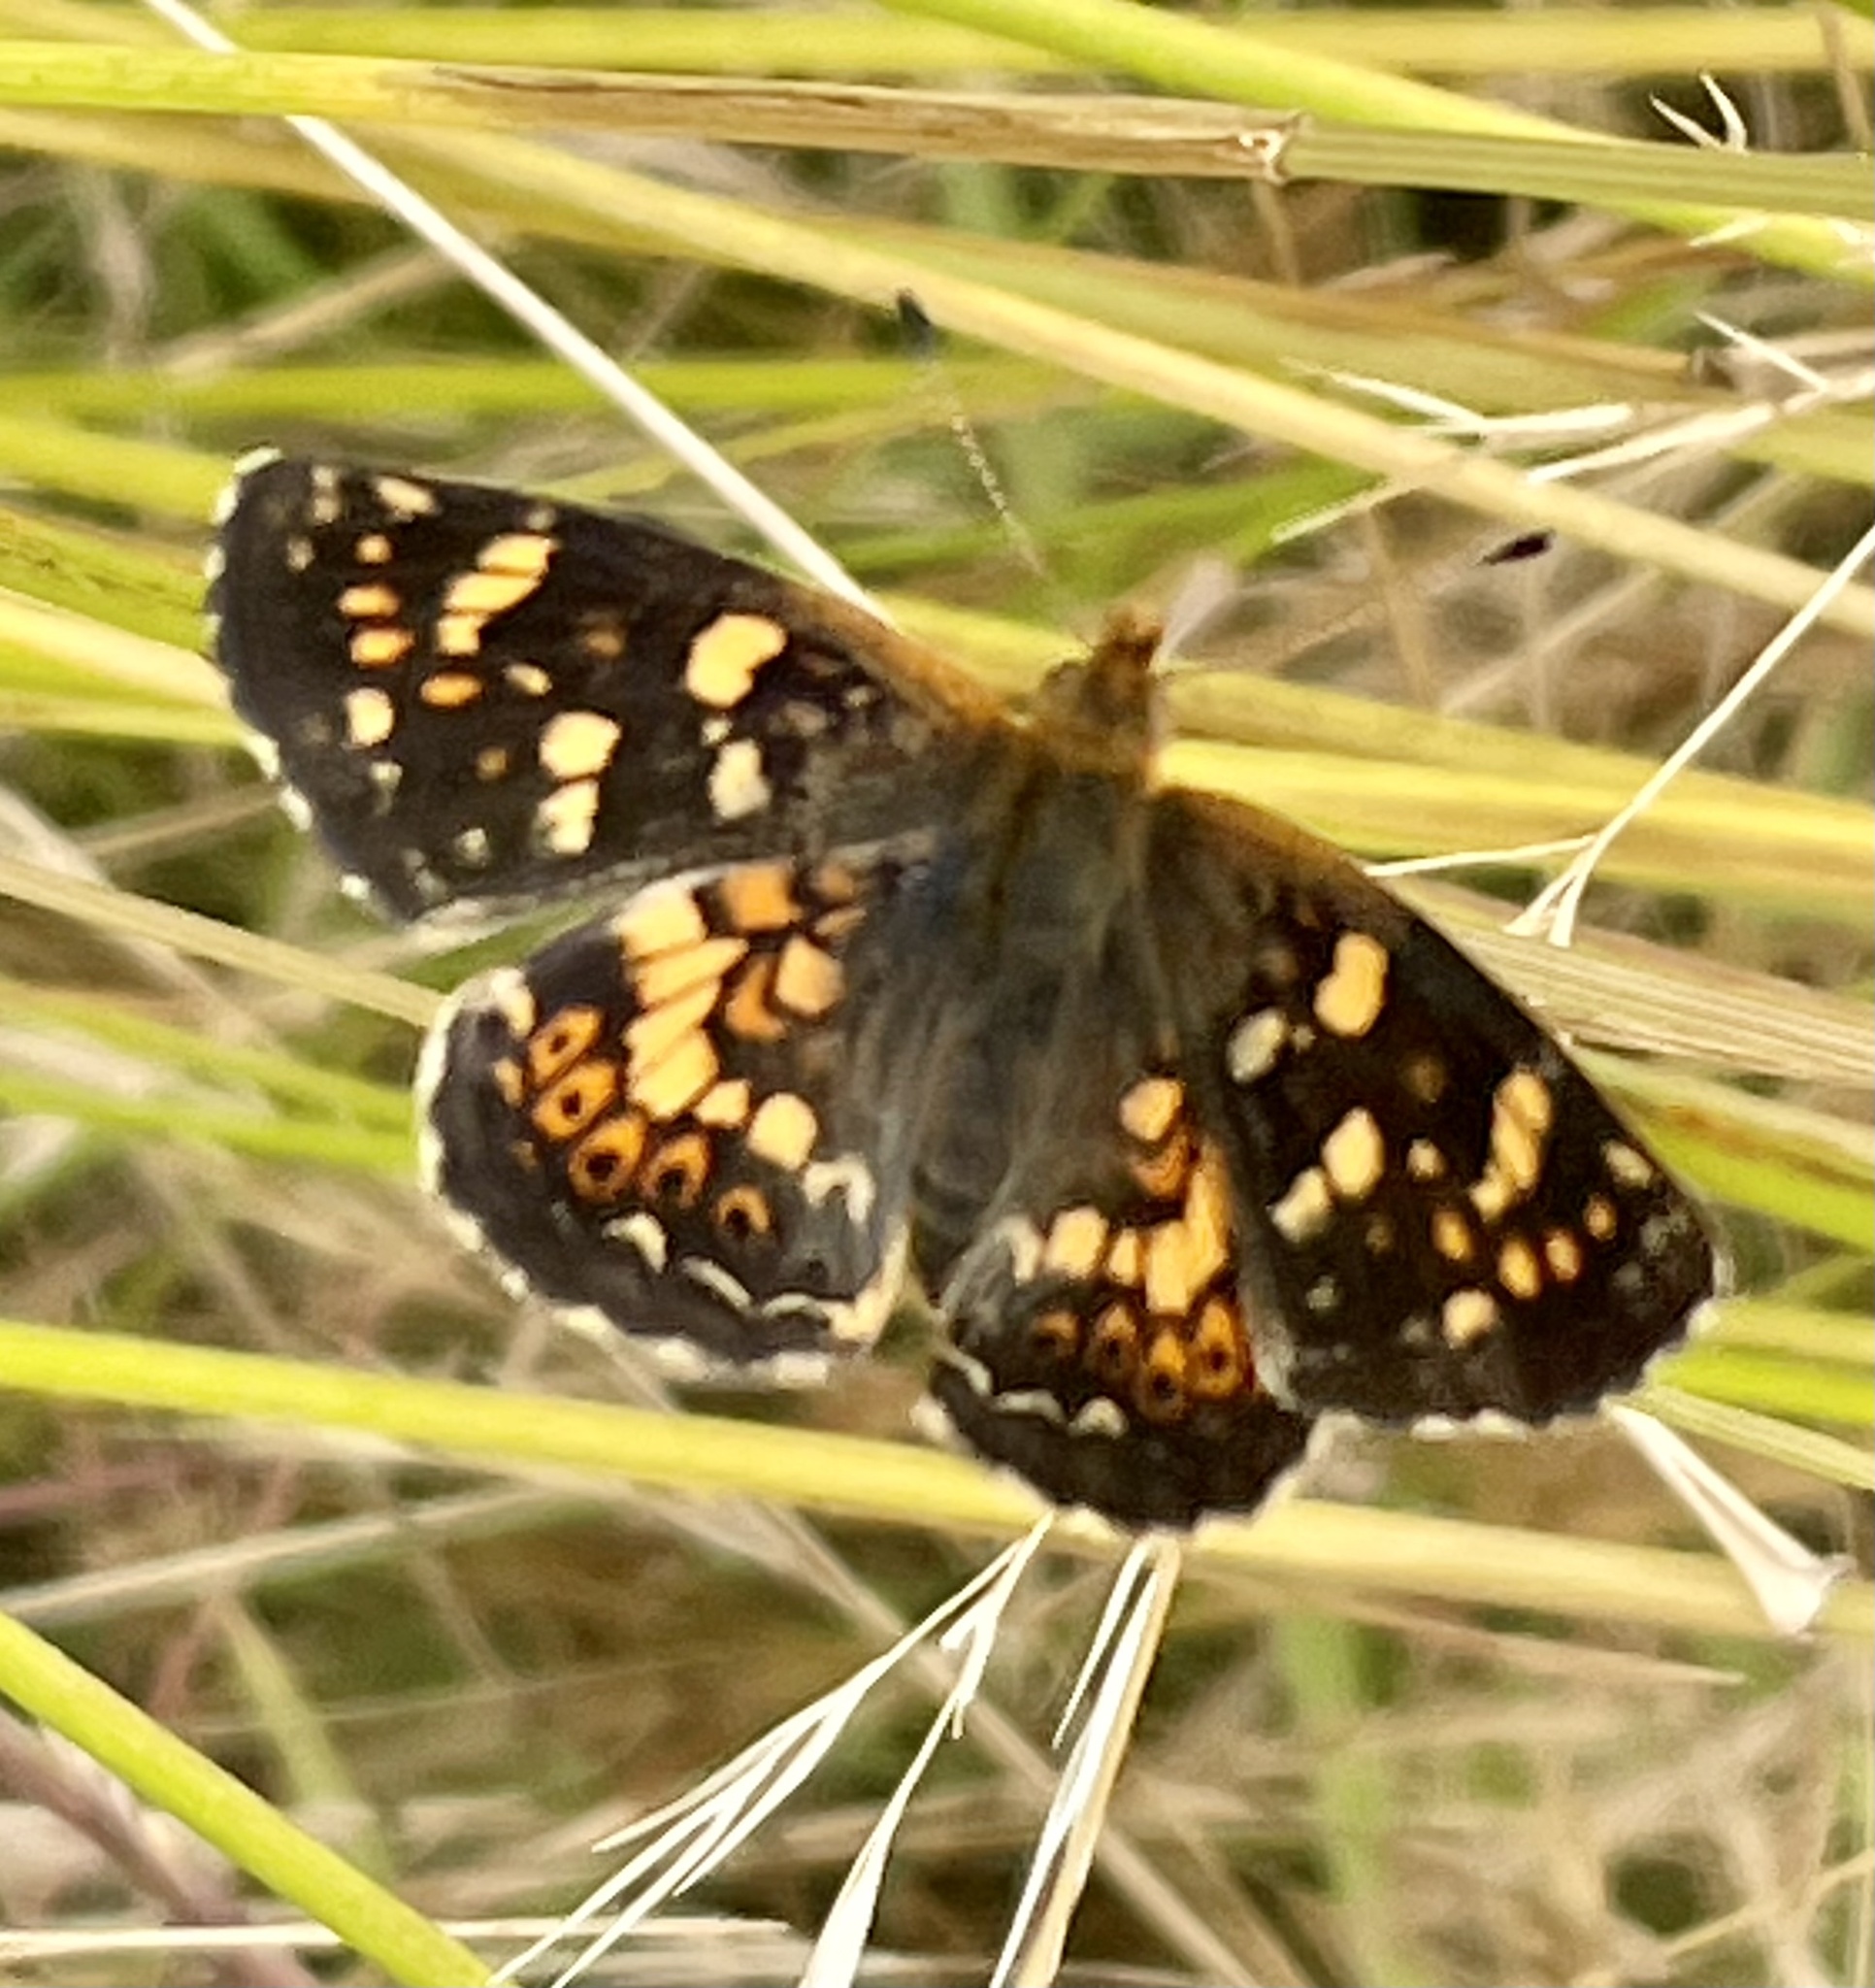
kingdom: Animalia
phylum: Arthropoda
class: Insecta
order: Lepidoptera
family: Nymphalidae
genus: Phyciodes
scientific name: Phyciodes tharos
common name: Pearl crescent
